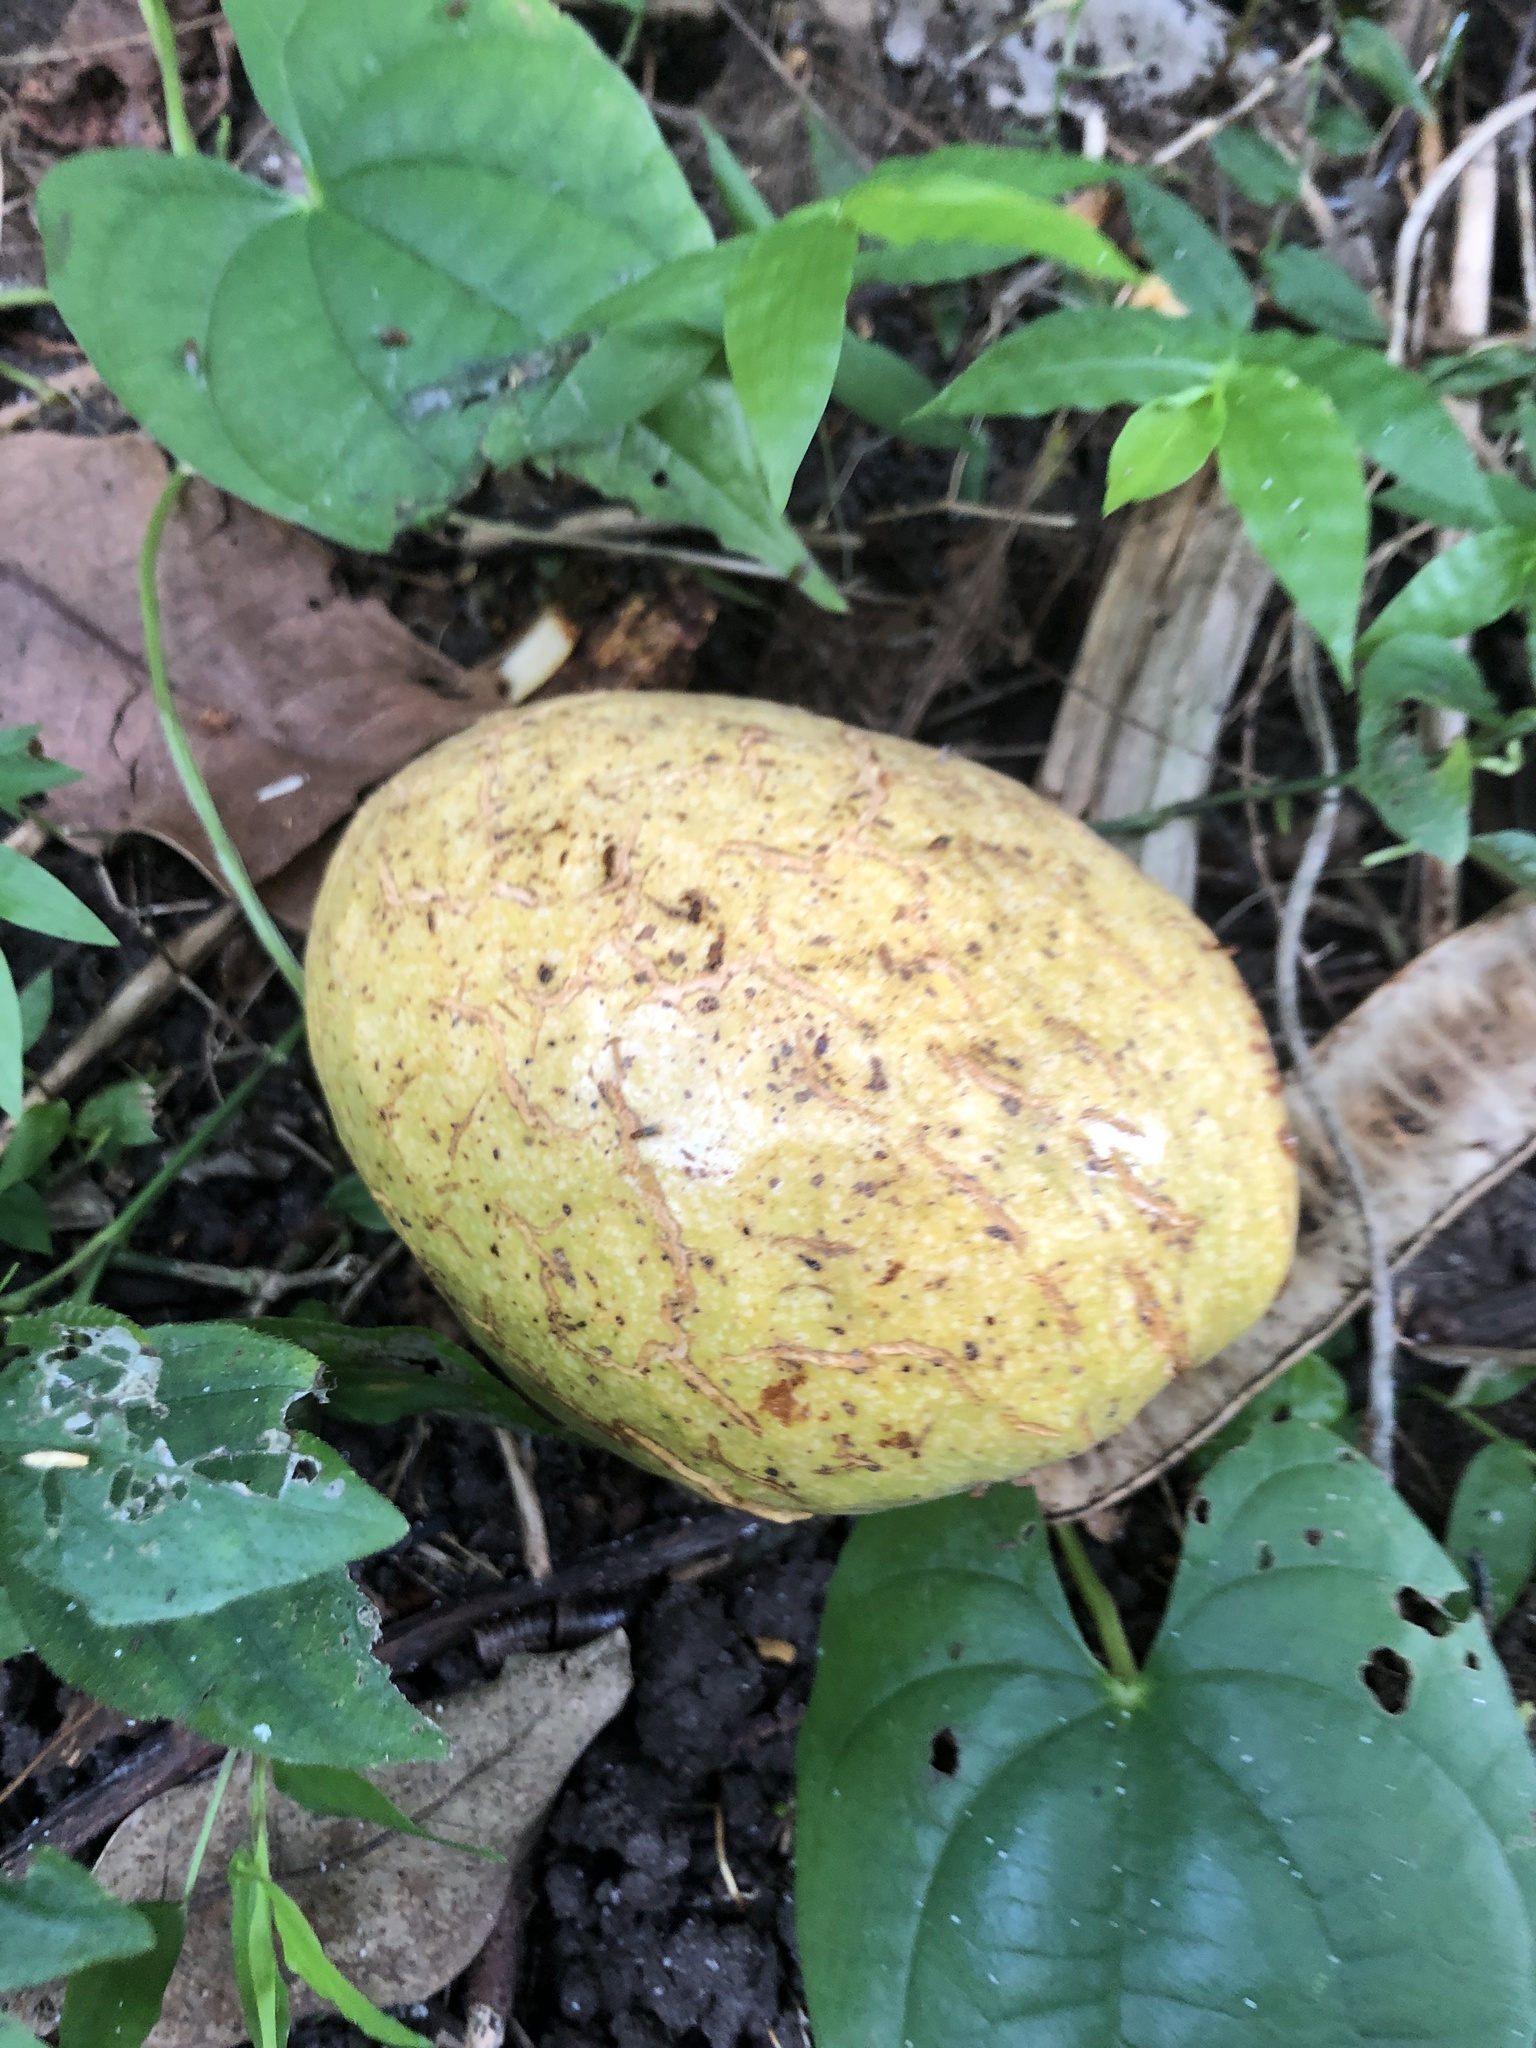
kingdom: Plantae
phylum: Tracheophyta
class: Magnoliopsida
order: Magnoliales
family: Annonaceae
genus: Annona
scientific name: Annona glabra
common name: Monkey apple
